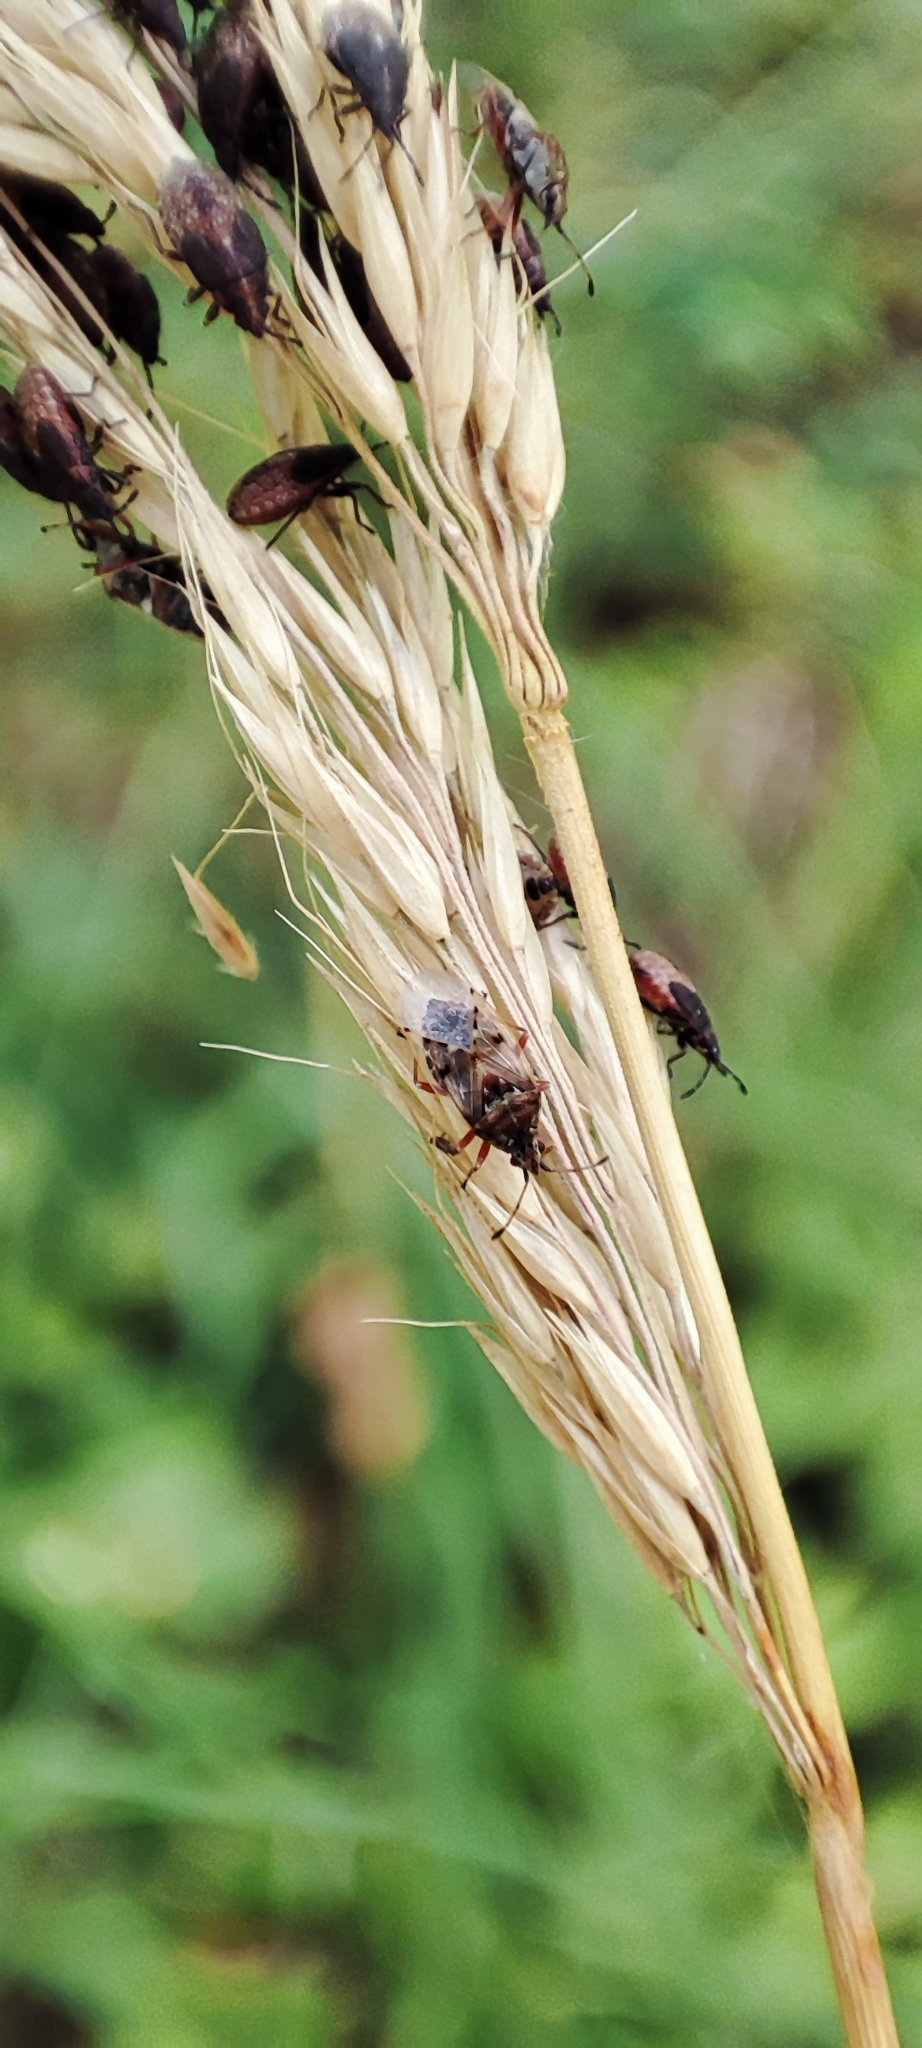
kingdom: Animalia
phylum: Arthropoda
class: Insecta
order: Hemiptera
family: Lygaeidae
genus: Kleidocerys
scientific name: Kleidocerys resedae
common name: Birch catkin bug
